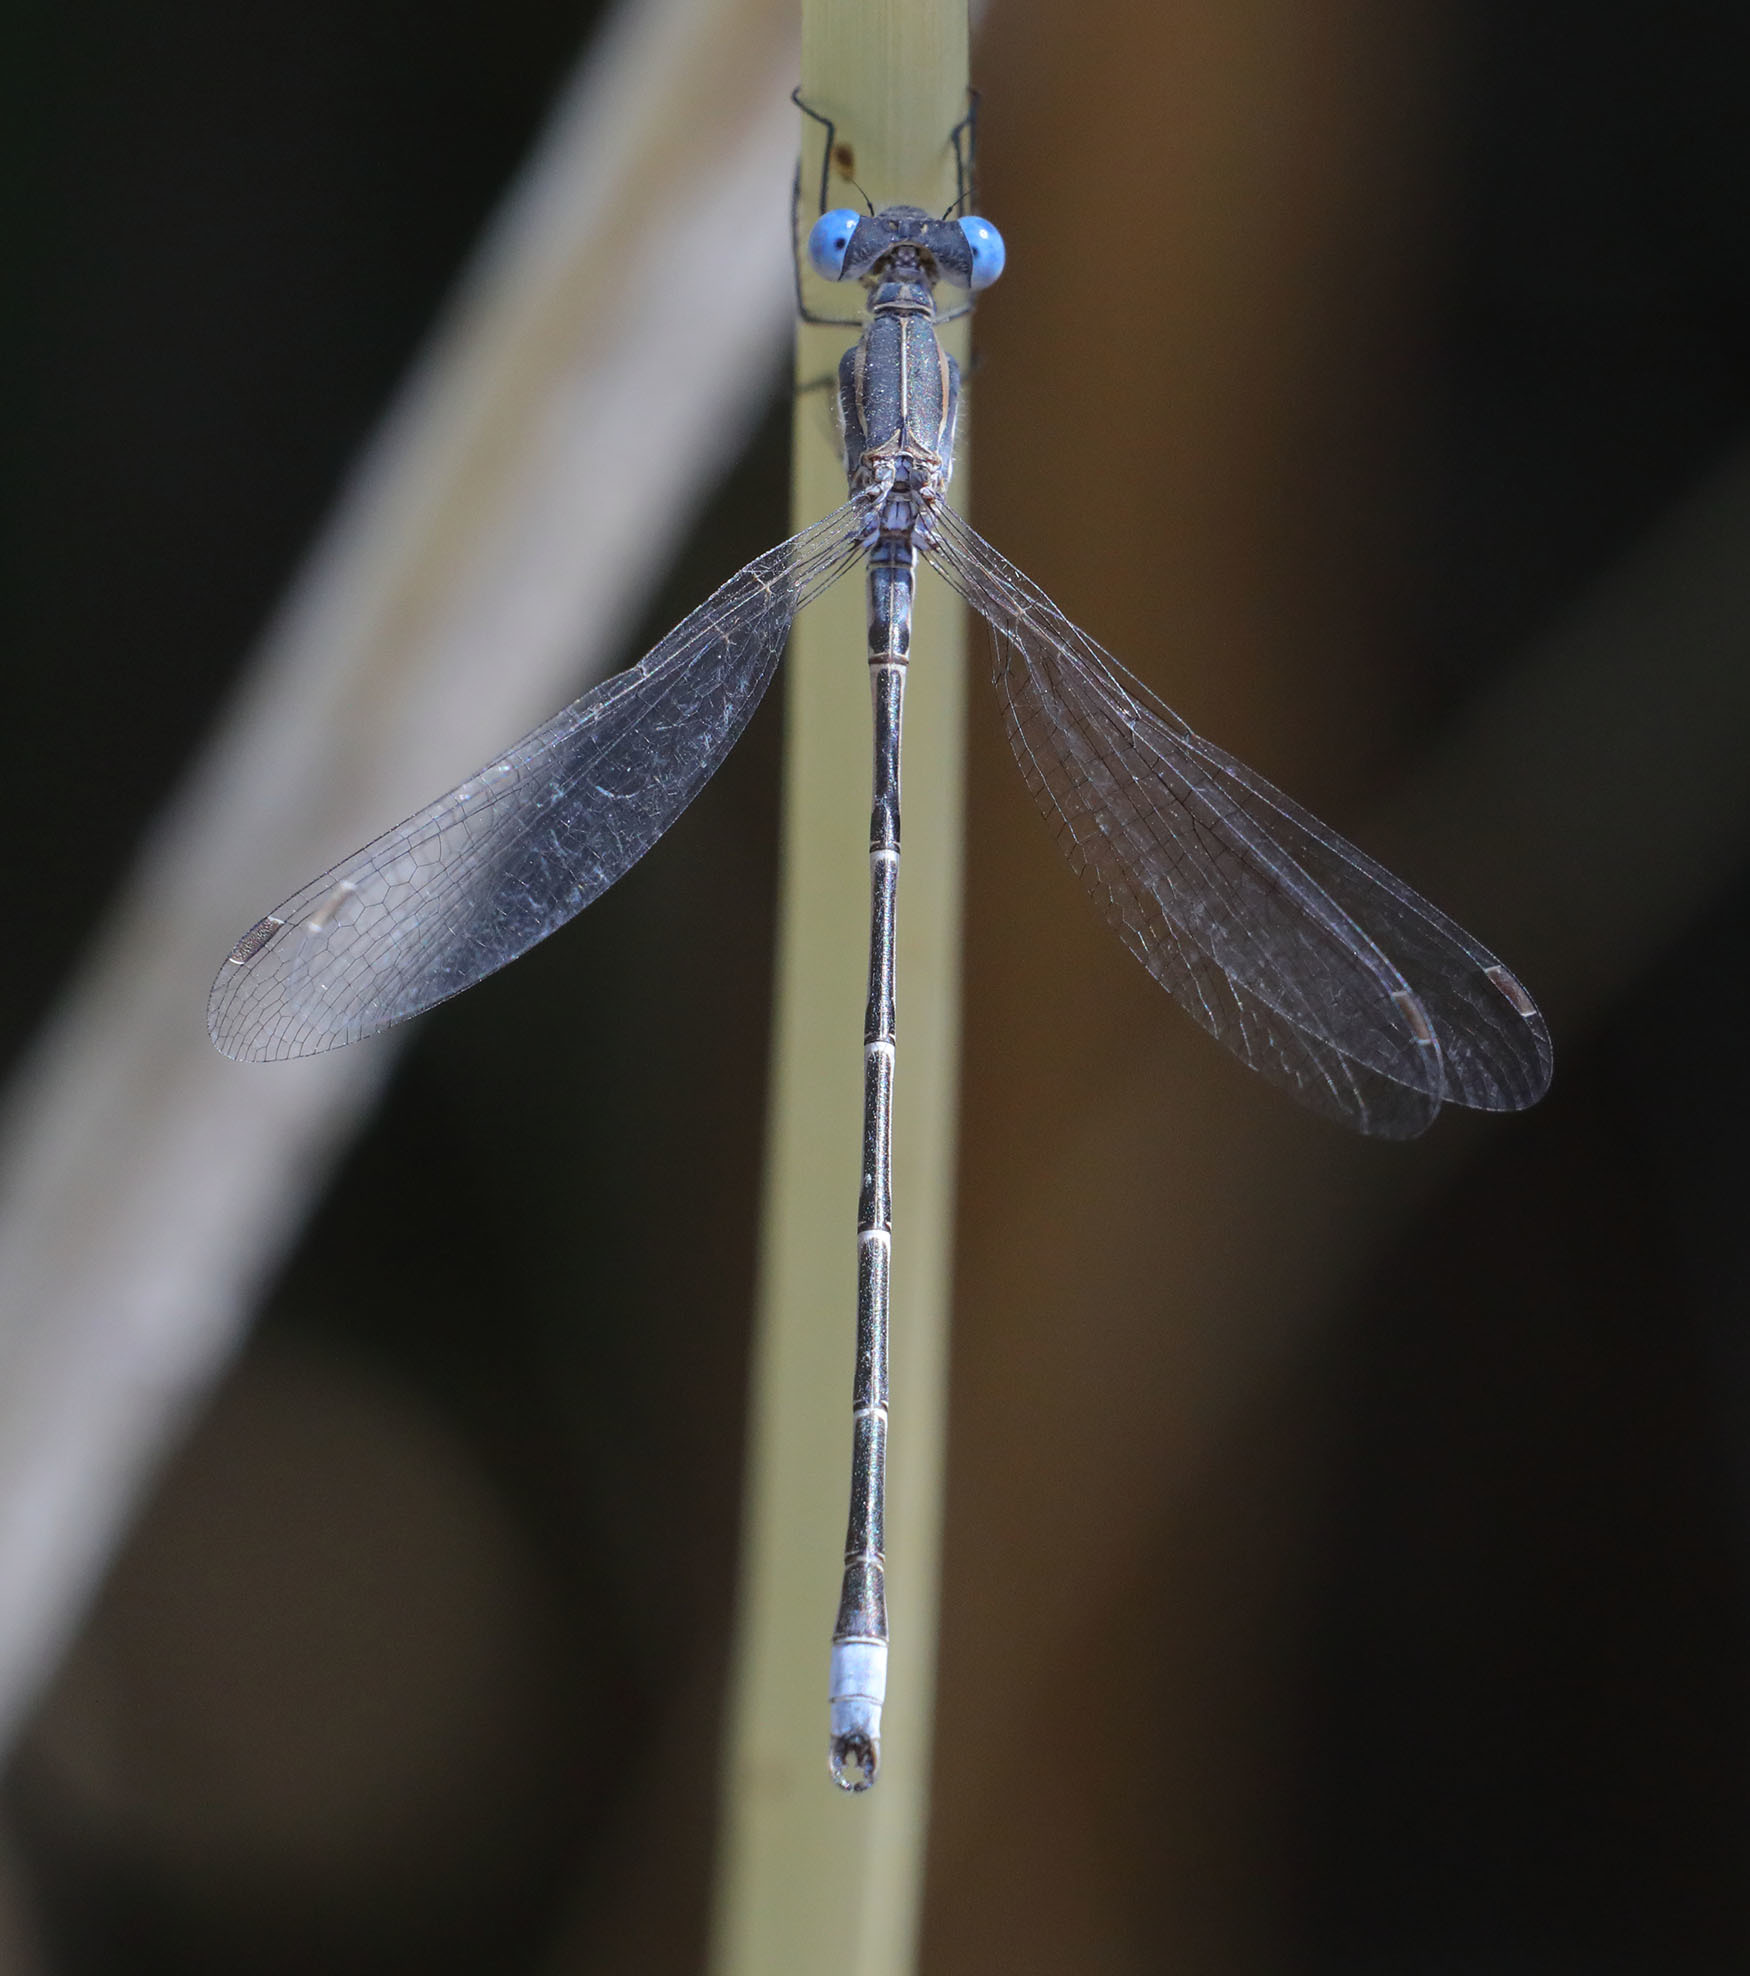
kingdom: Animalia
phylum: Arthropoda
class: Insecta
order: Odonata
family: Lestidae
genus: Lestes
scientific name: Lestes congener
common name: Spotted spreadwing
